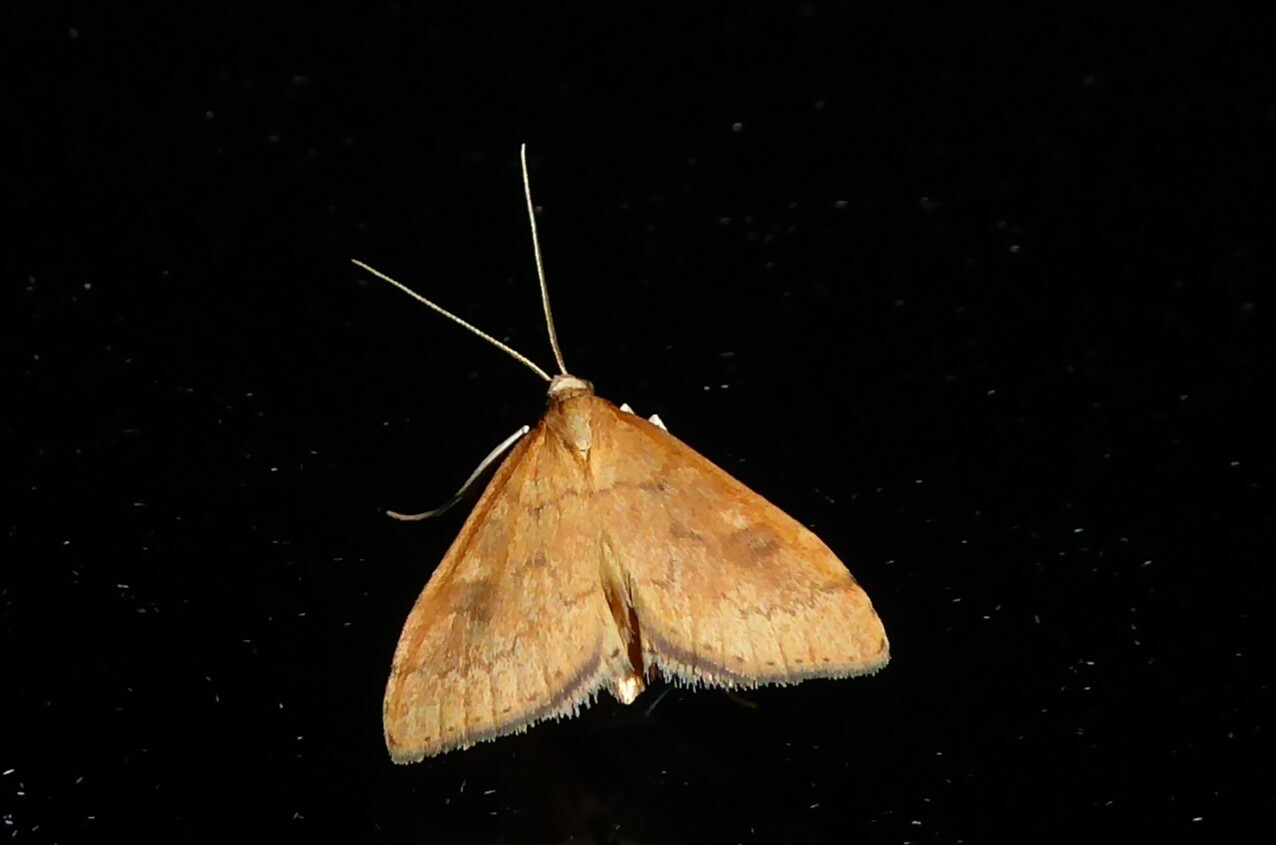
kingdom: Animalia
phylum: Arthropoda
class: Insecta
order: Lepidoptera
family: Crambidae
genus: Udea
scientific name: Udea Mnesictena flavidalis
